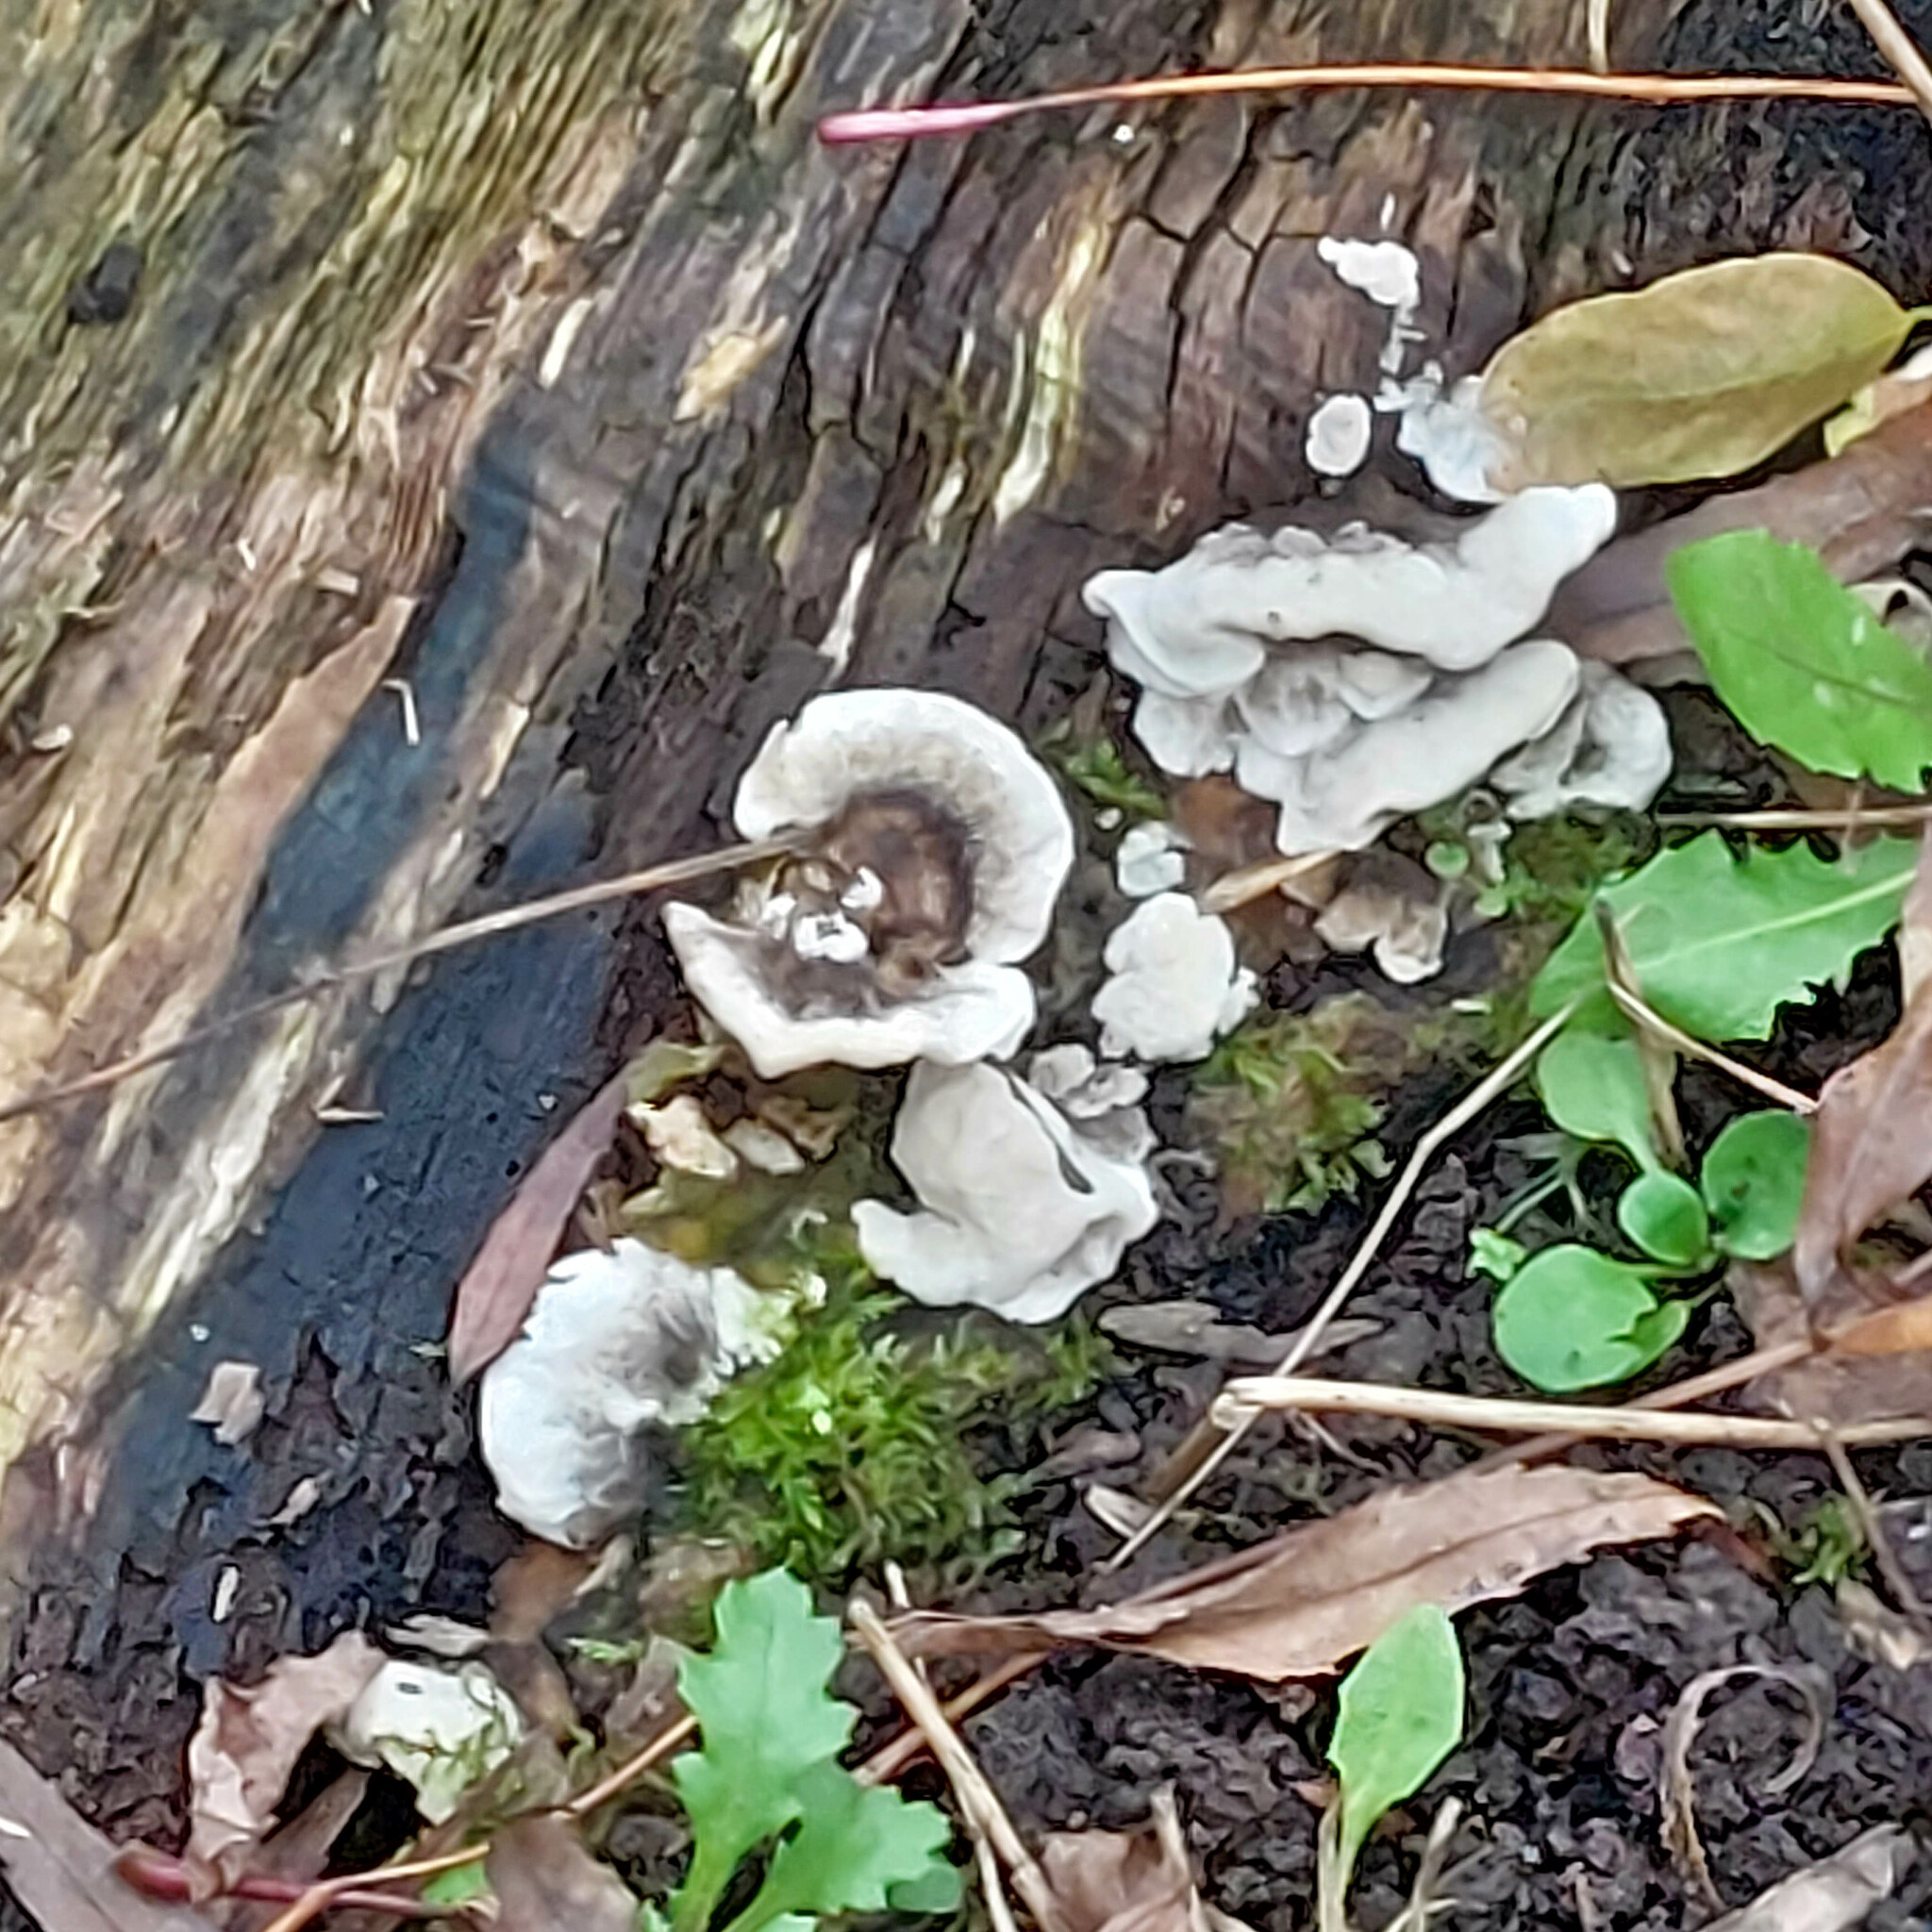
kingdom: Fungi
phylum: Basidiomycota
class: Agaricomycetes
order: Polyporales
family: Polyporaceae
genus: Trametes
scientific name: Trametes versicolor
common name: Turkeytail
